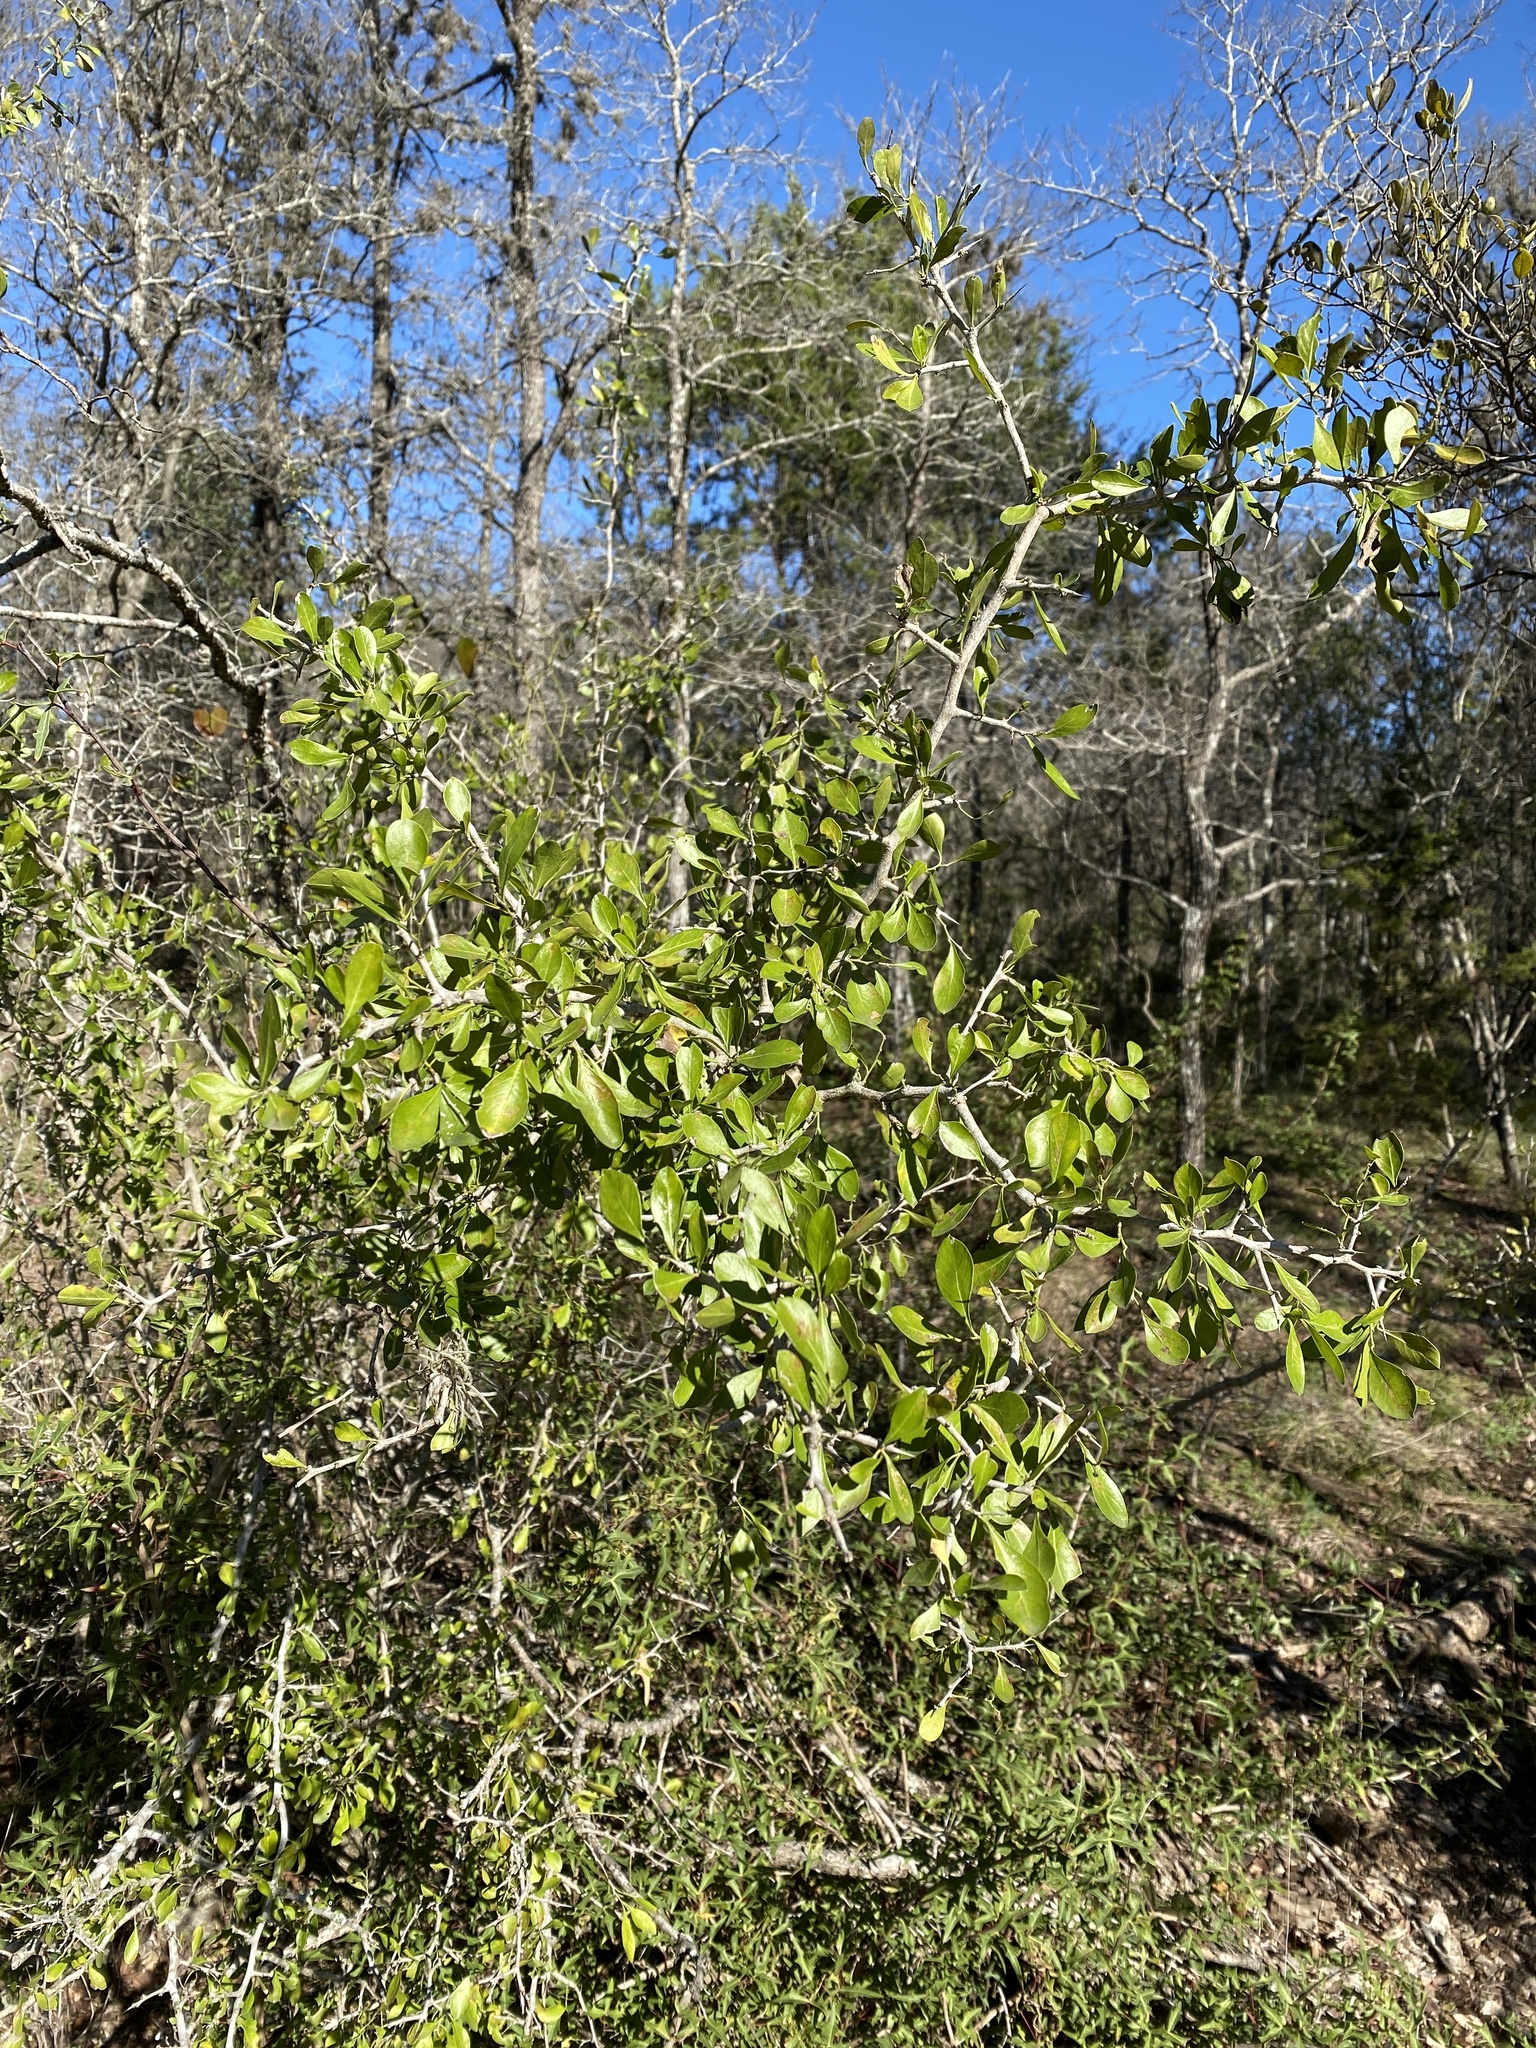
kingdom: Plantae
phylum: Tracheophyta
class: Magnoliopsida
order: Rosales
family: Rhamnaceae
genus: Condalia
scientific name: Condalia hookeri
